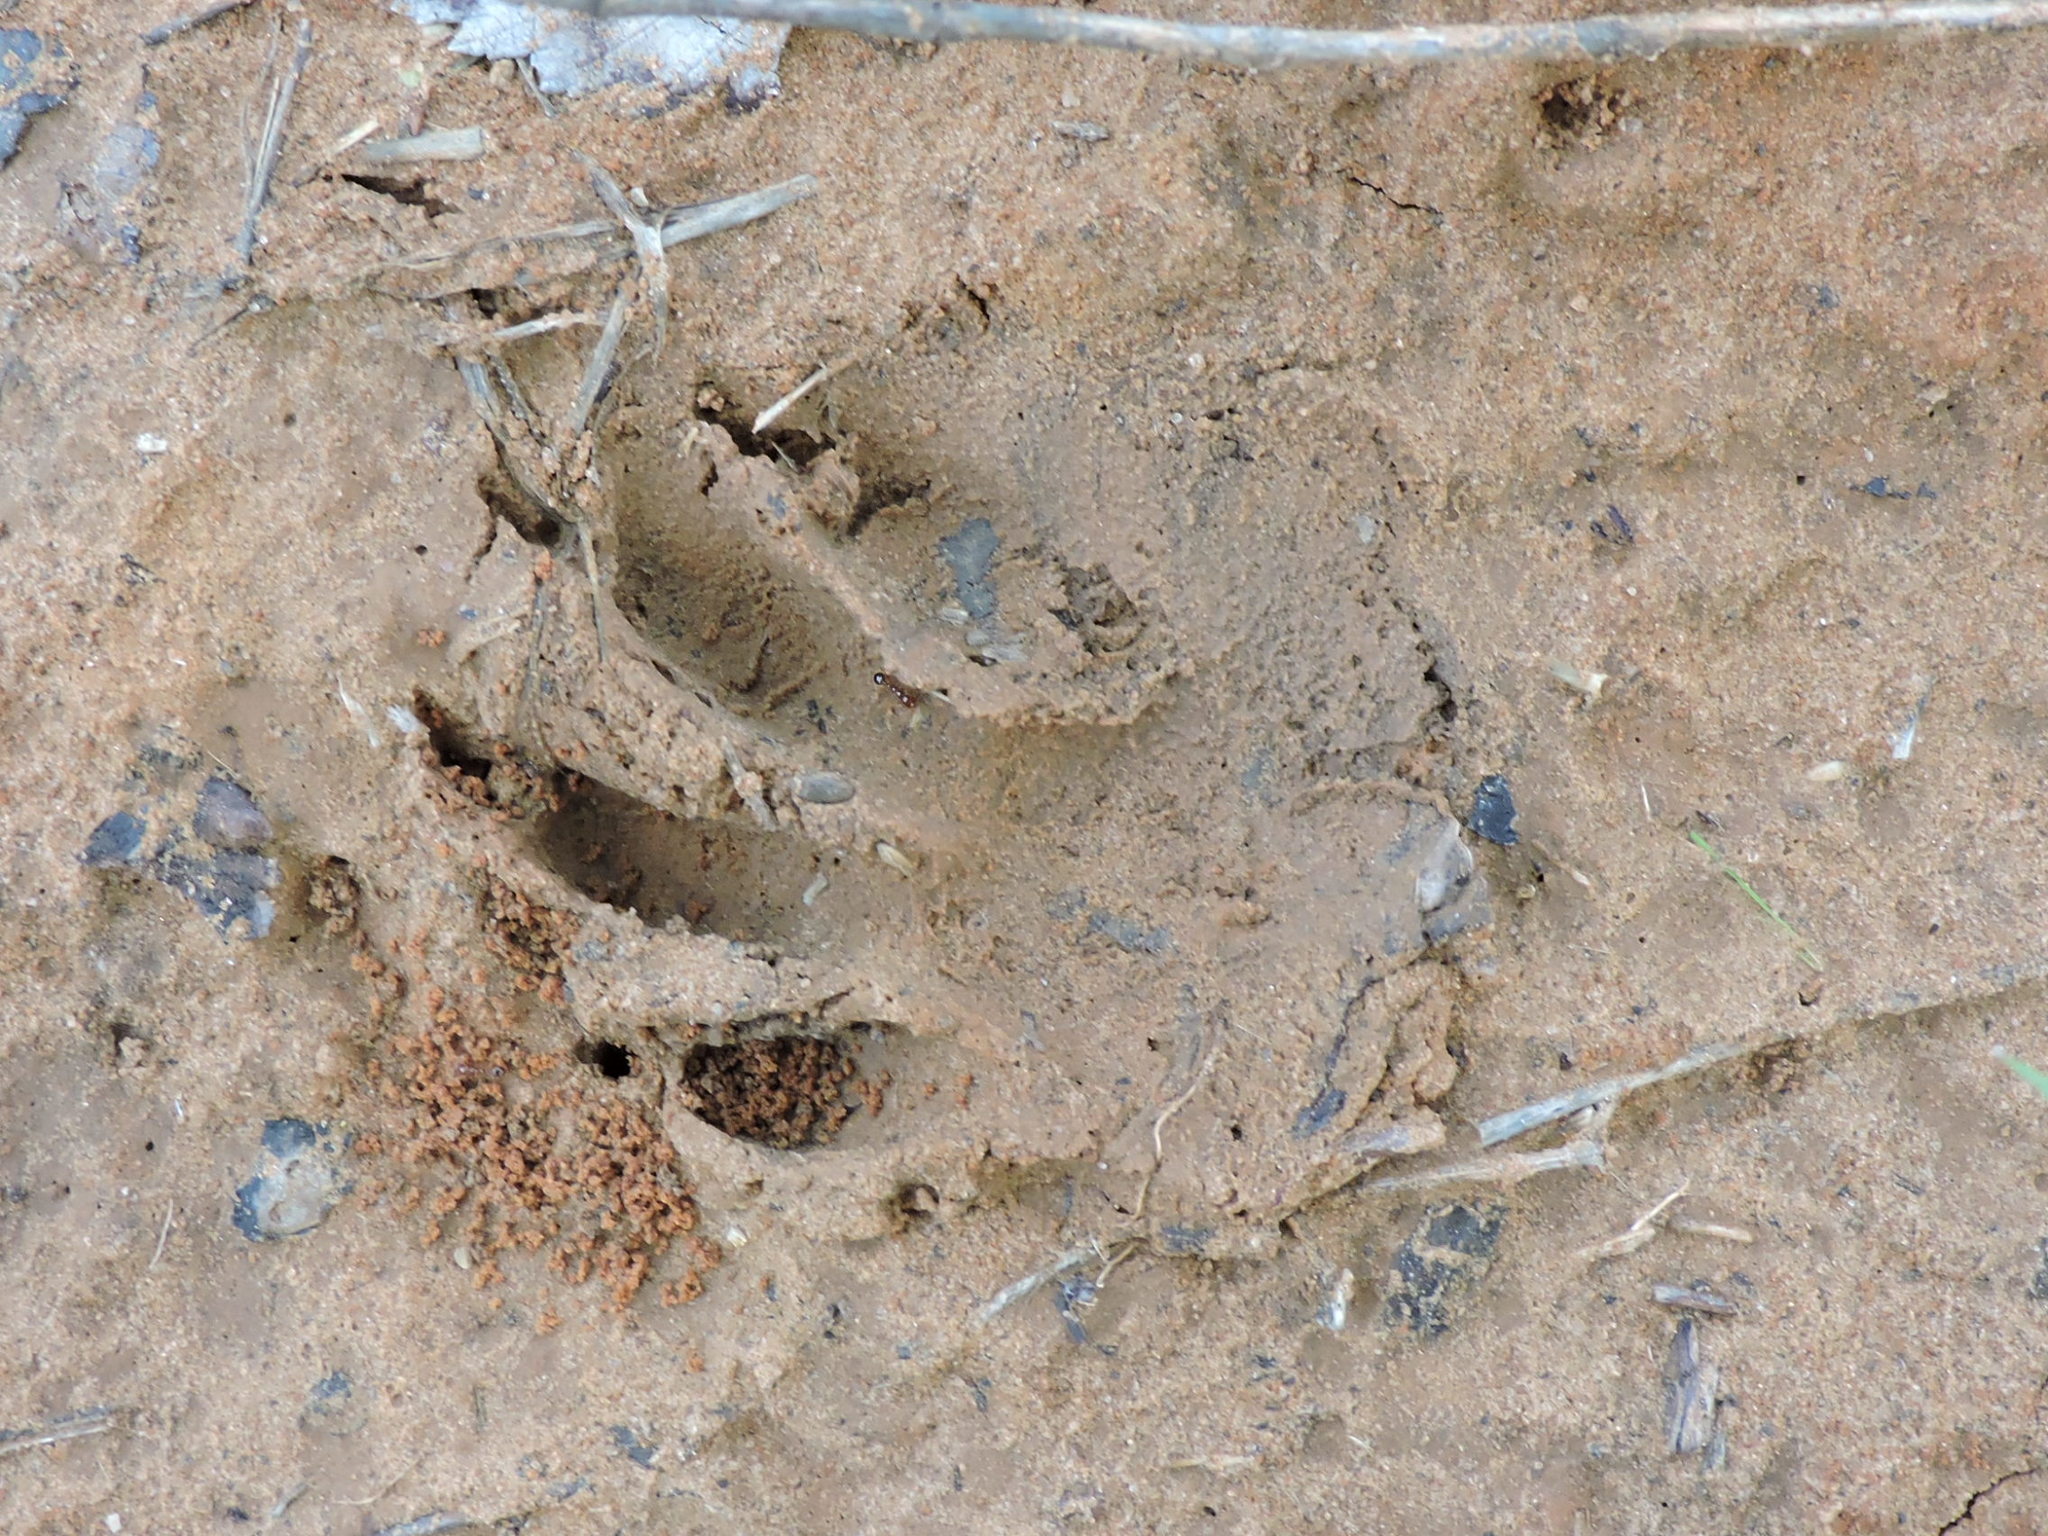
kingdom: Animalia
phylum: Chordata
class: Mammalia
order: Carnivora
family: Procyonidae
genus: Procyon
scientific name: Procyon lotor
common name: Raccoon
